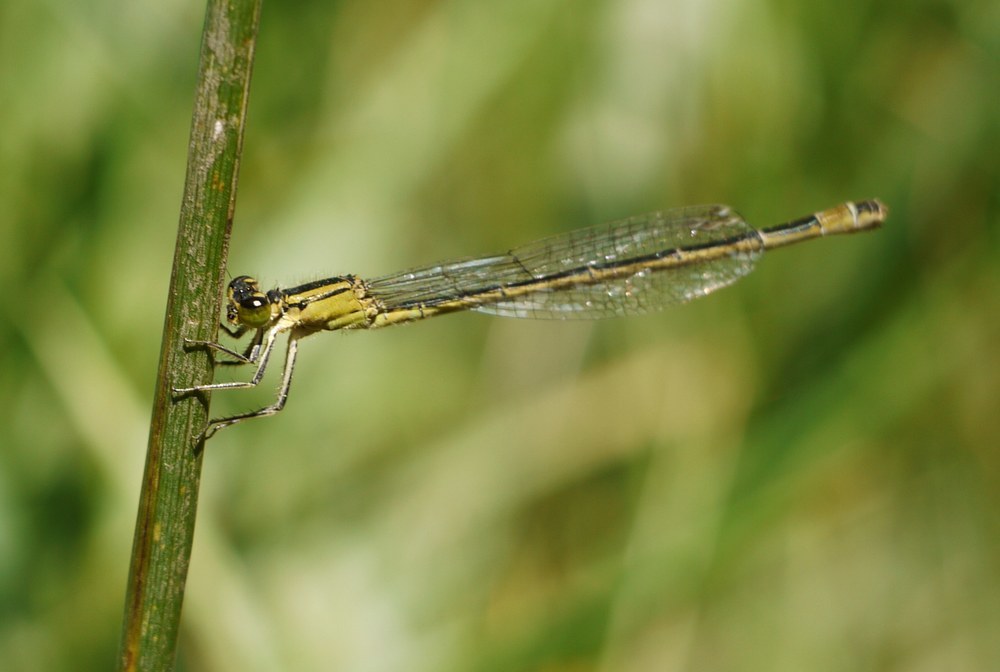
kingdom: Animalia
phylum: Arthropoda
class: Insecta
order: Odonata
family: Coenagrionidae
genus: Ischnura
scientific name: Ischnura elegans
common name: Blue-tailed damselfly
